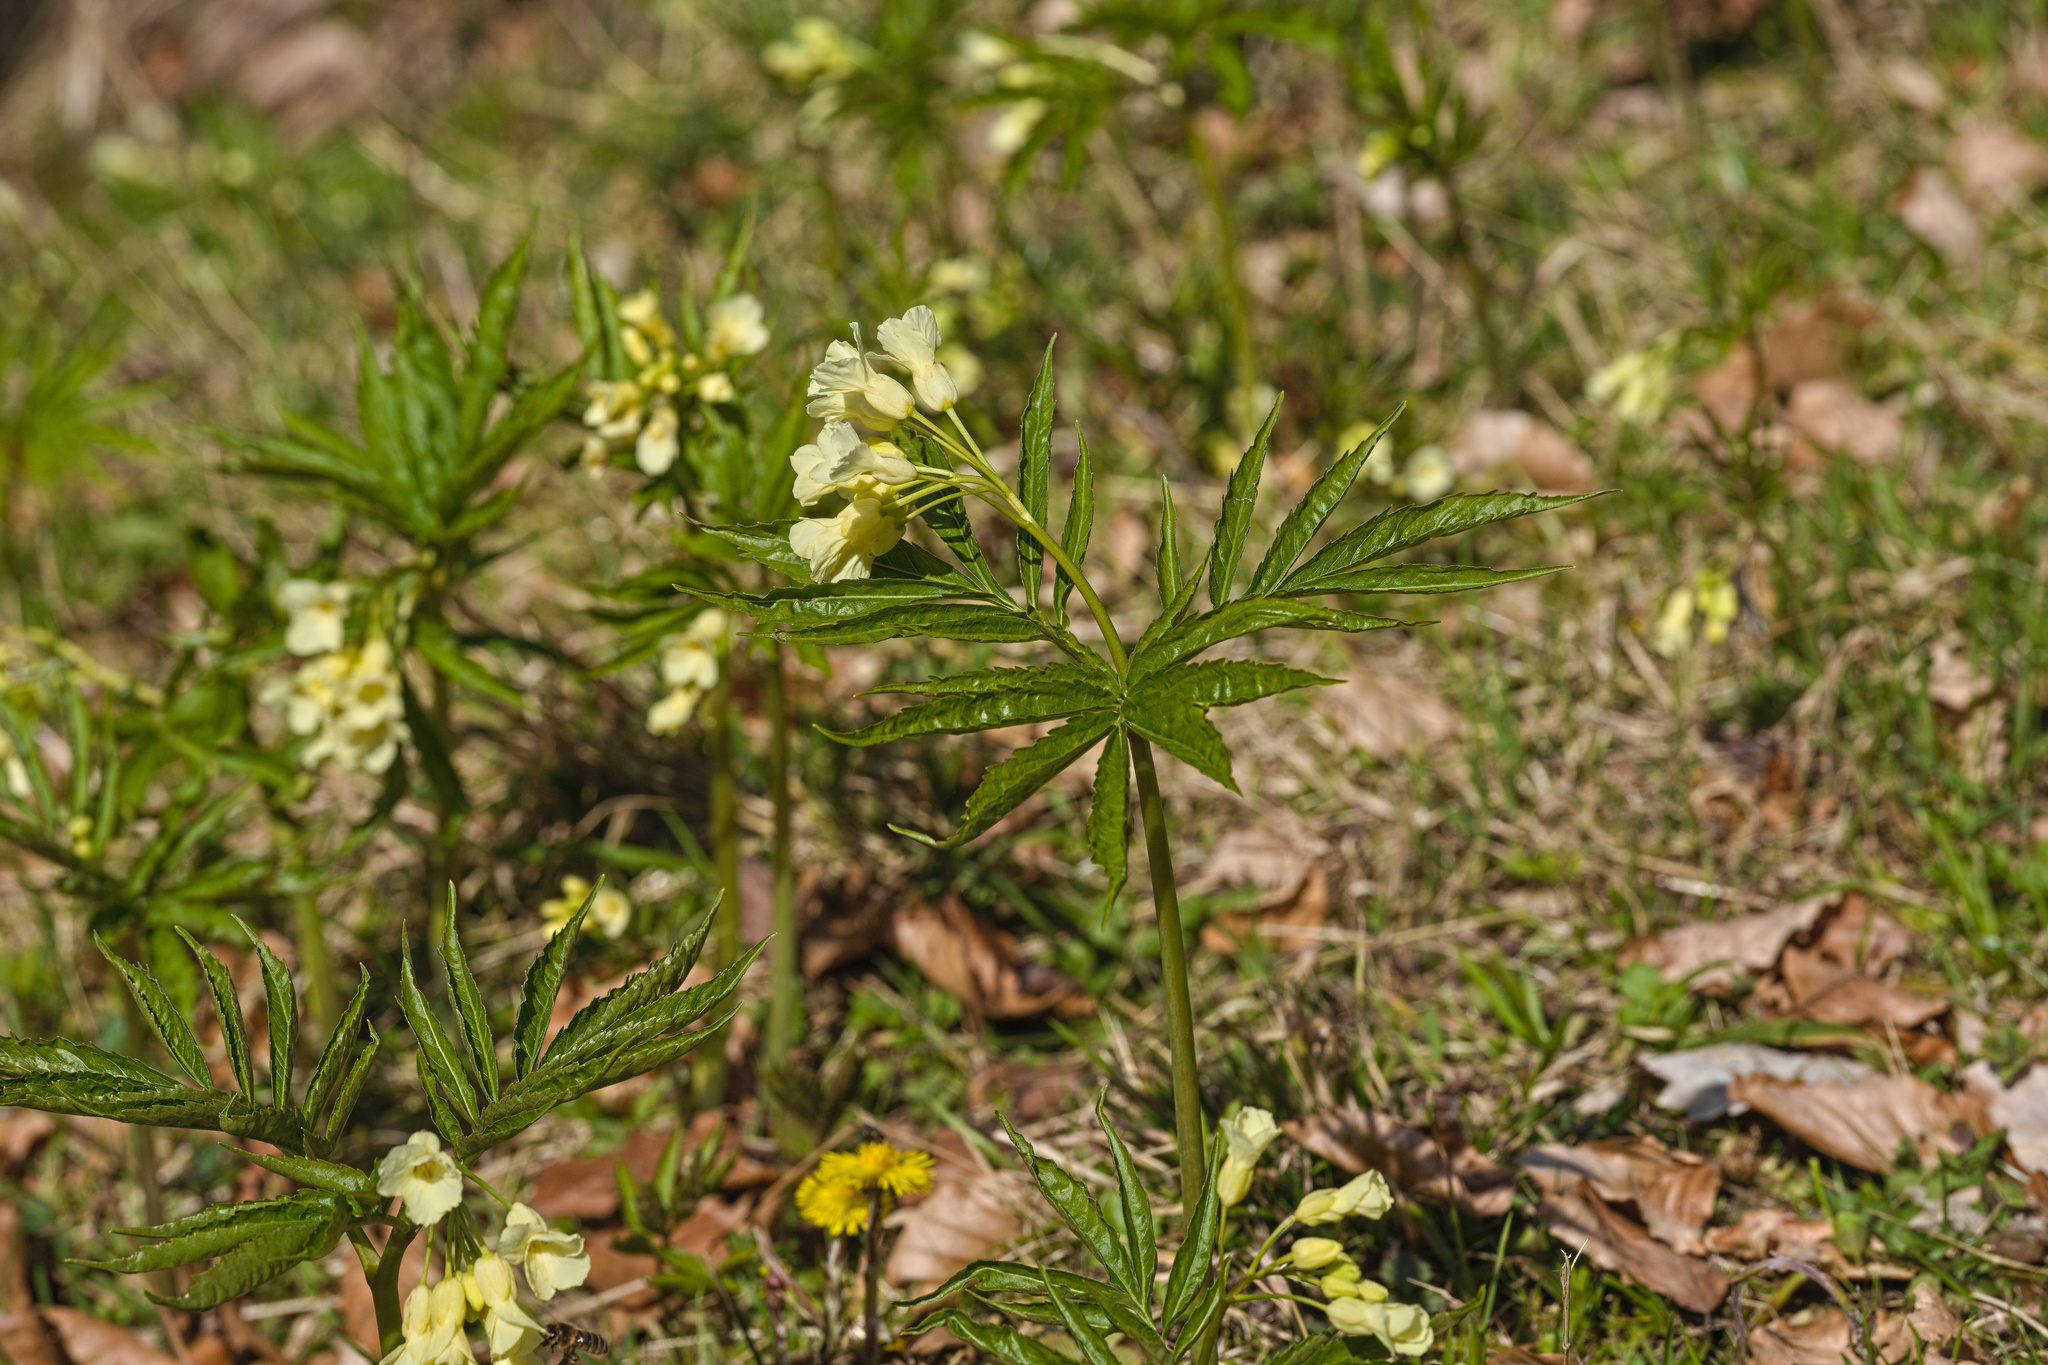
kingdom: Plantae
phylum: Tracheophyta
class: Magnoliopsida
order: Brassicales
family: Brassicaceae
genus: Cardamine
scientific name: Cardamine kitaibelii
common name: Kitaibel's bitter-cress
